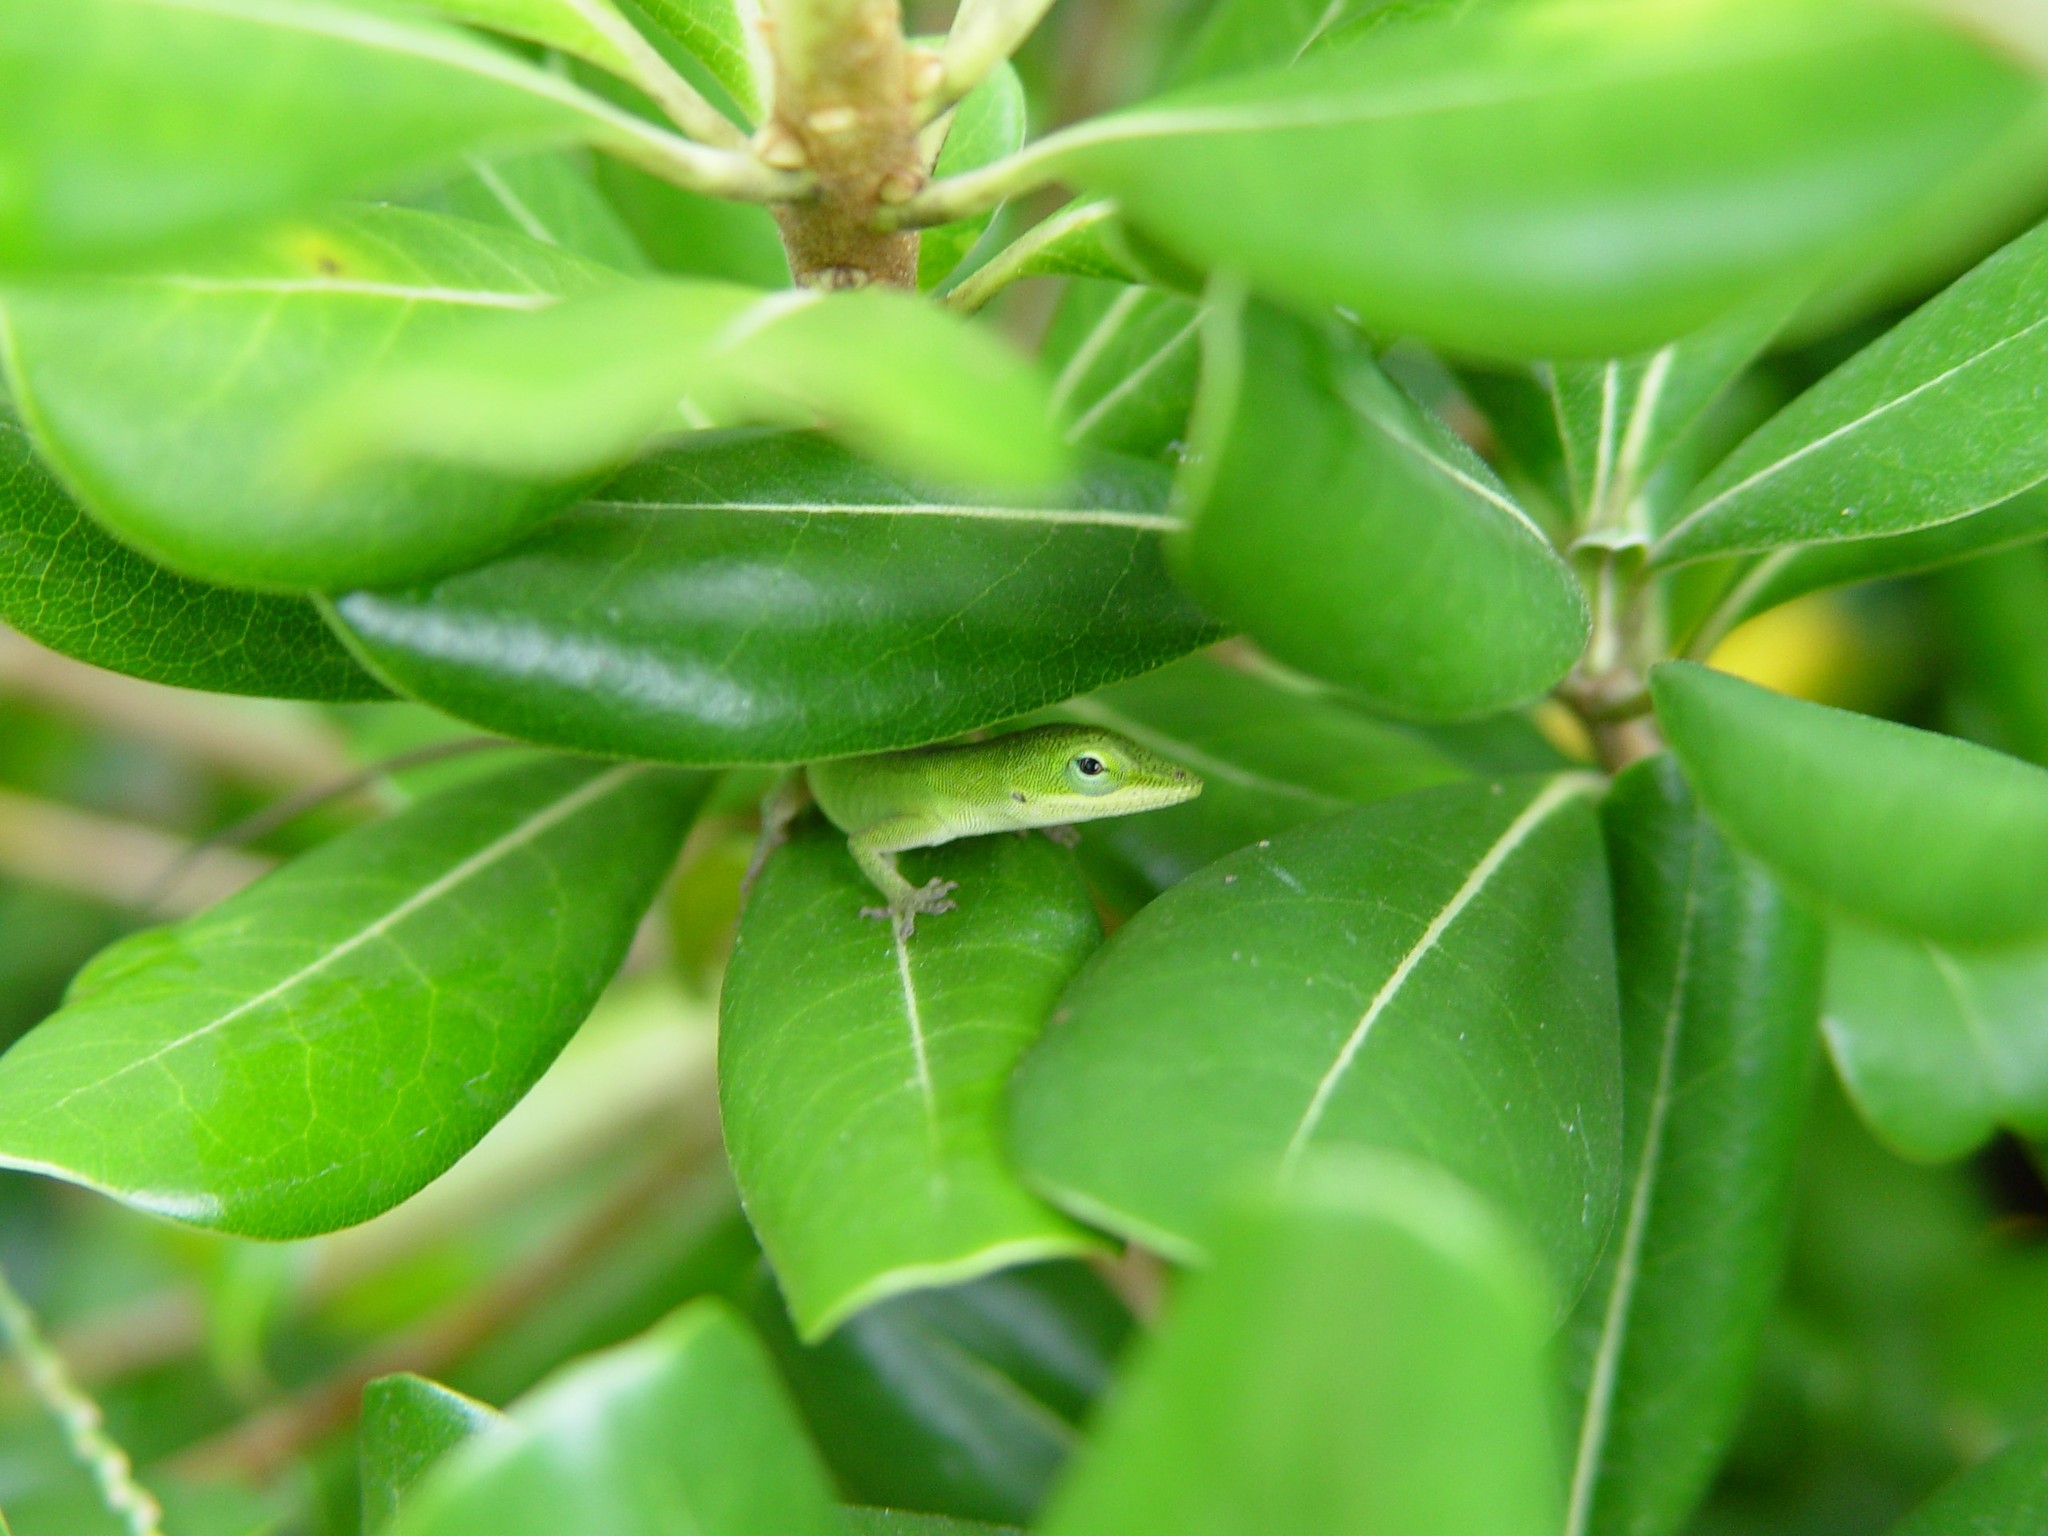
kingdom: Animalia
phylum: Chordata
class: Squamata
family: Dactyloidae
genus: Anolis
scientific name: Anolis carolinensis
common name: Green anole
